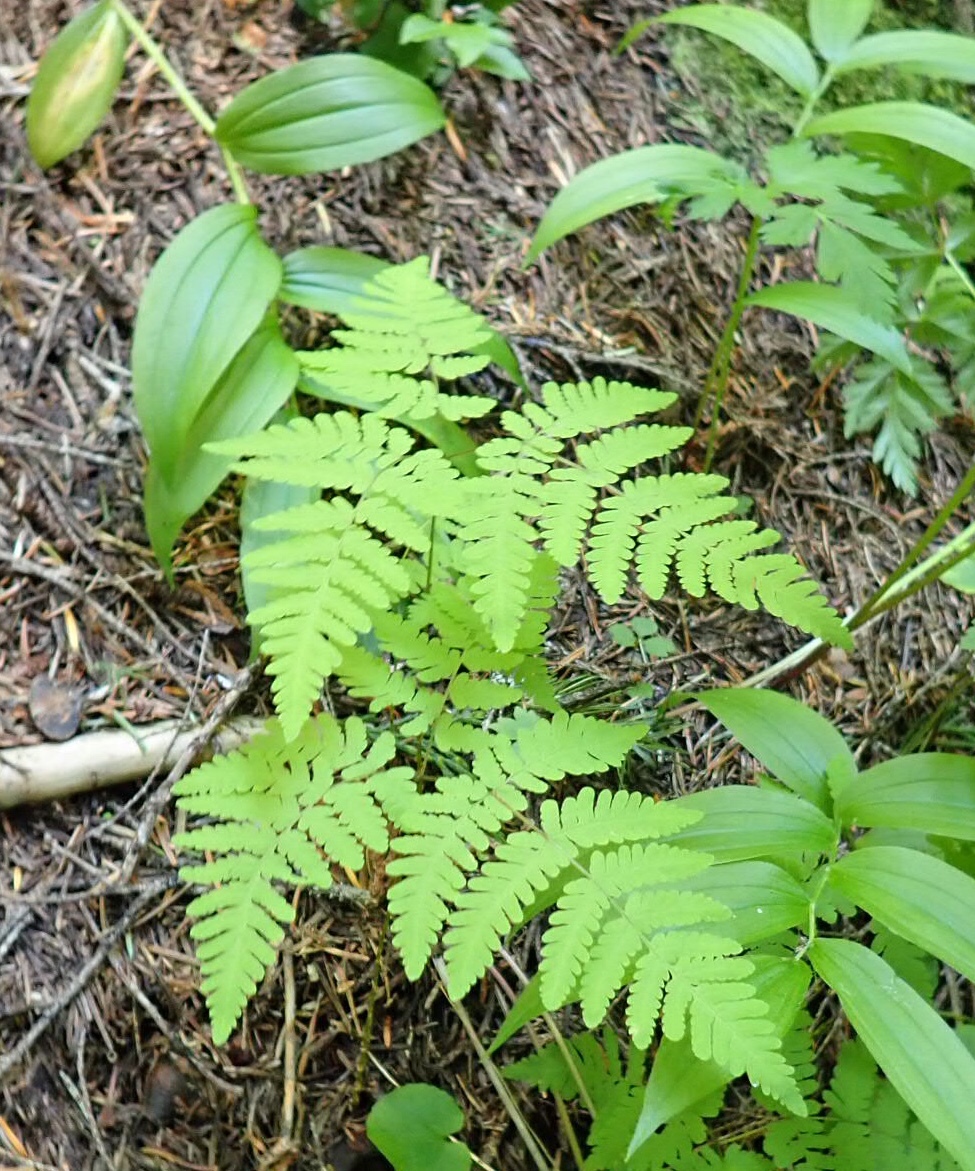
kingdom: Plantae
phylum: Tracheophyta
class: Polypodiopsida
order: Polypodiales
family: Cystopteridaceae
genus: Gymnocarpium
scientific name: Gymnocarpium disjunctum
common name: Western oak fern
